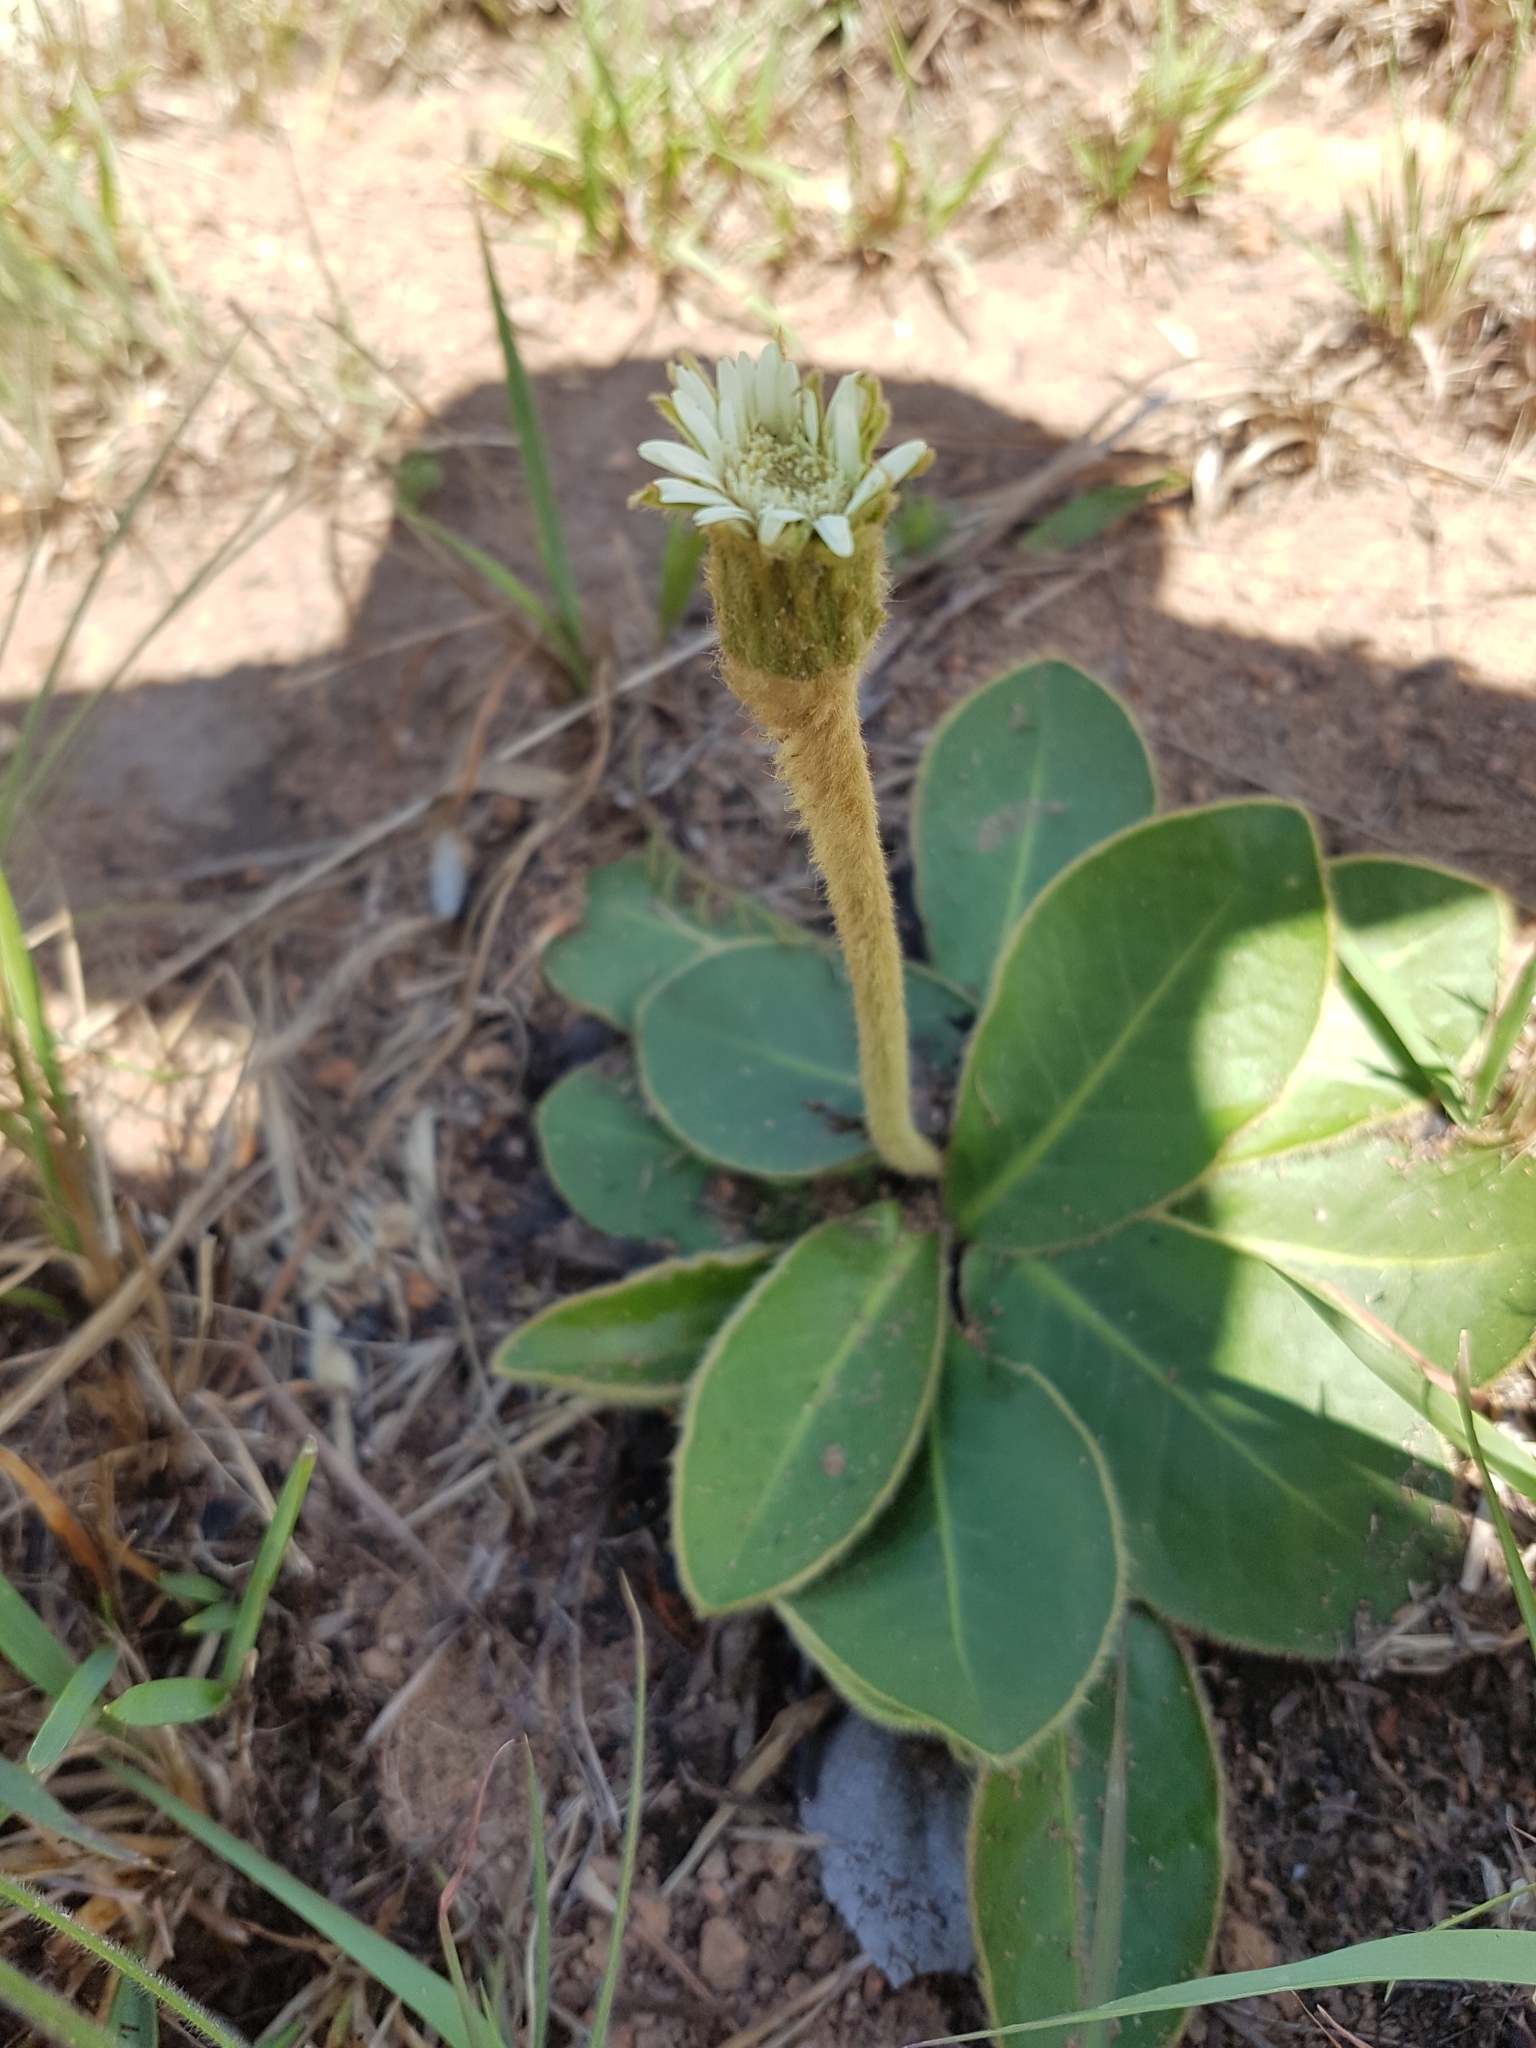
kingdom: Plantae
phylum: Tracheophyta
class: Magnoliopsida
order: Asterales
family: Asteraceae
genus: Piloselloides
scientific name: Piloselloides hirsuta
